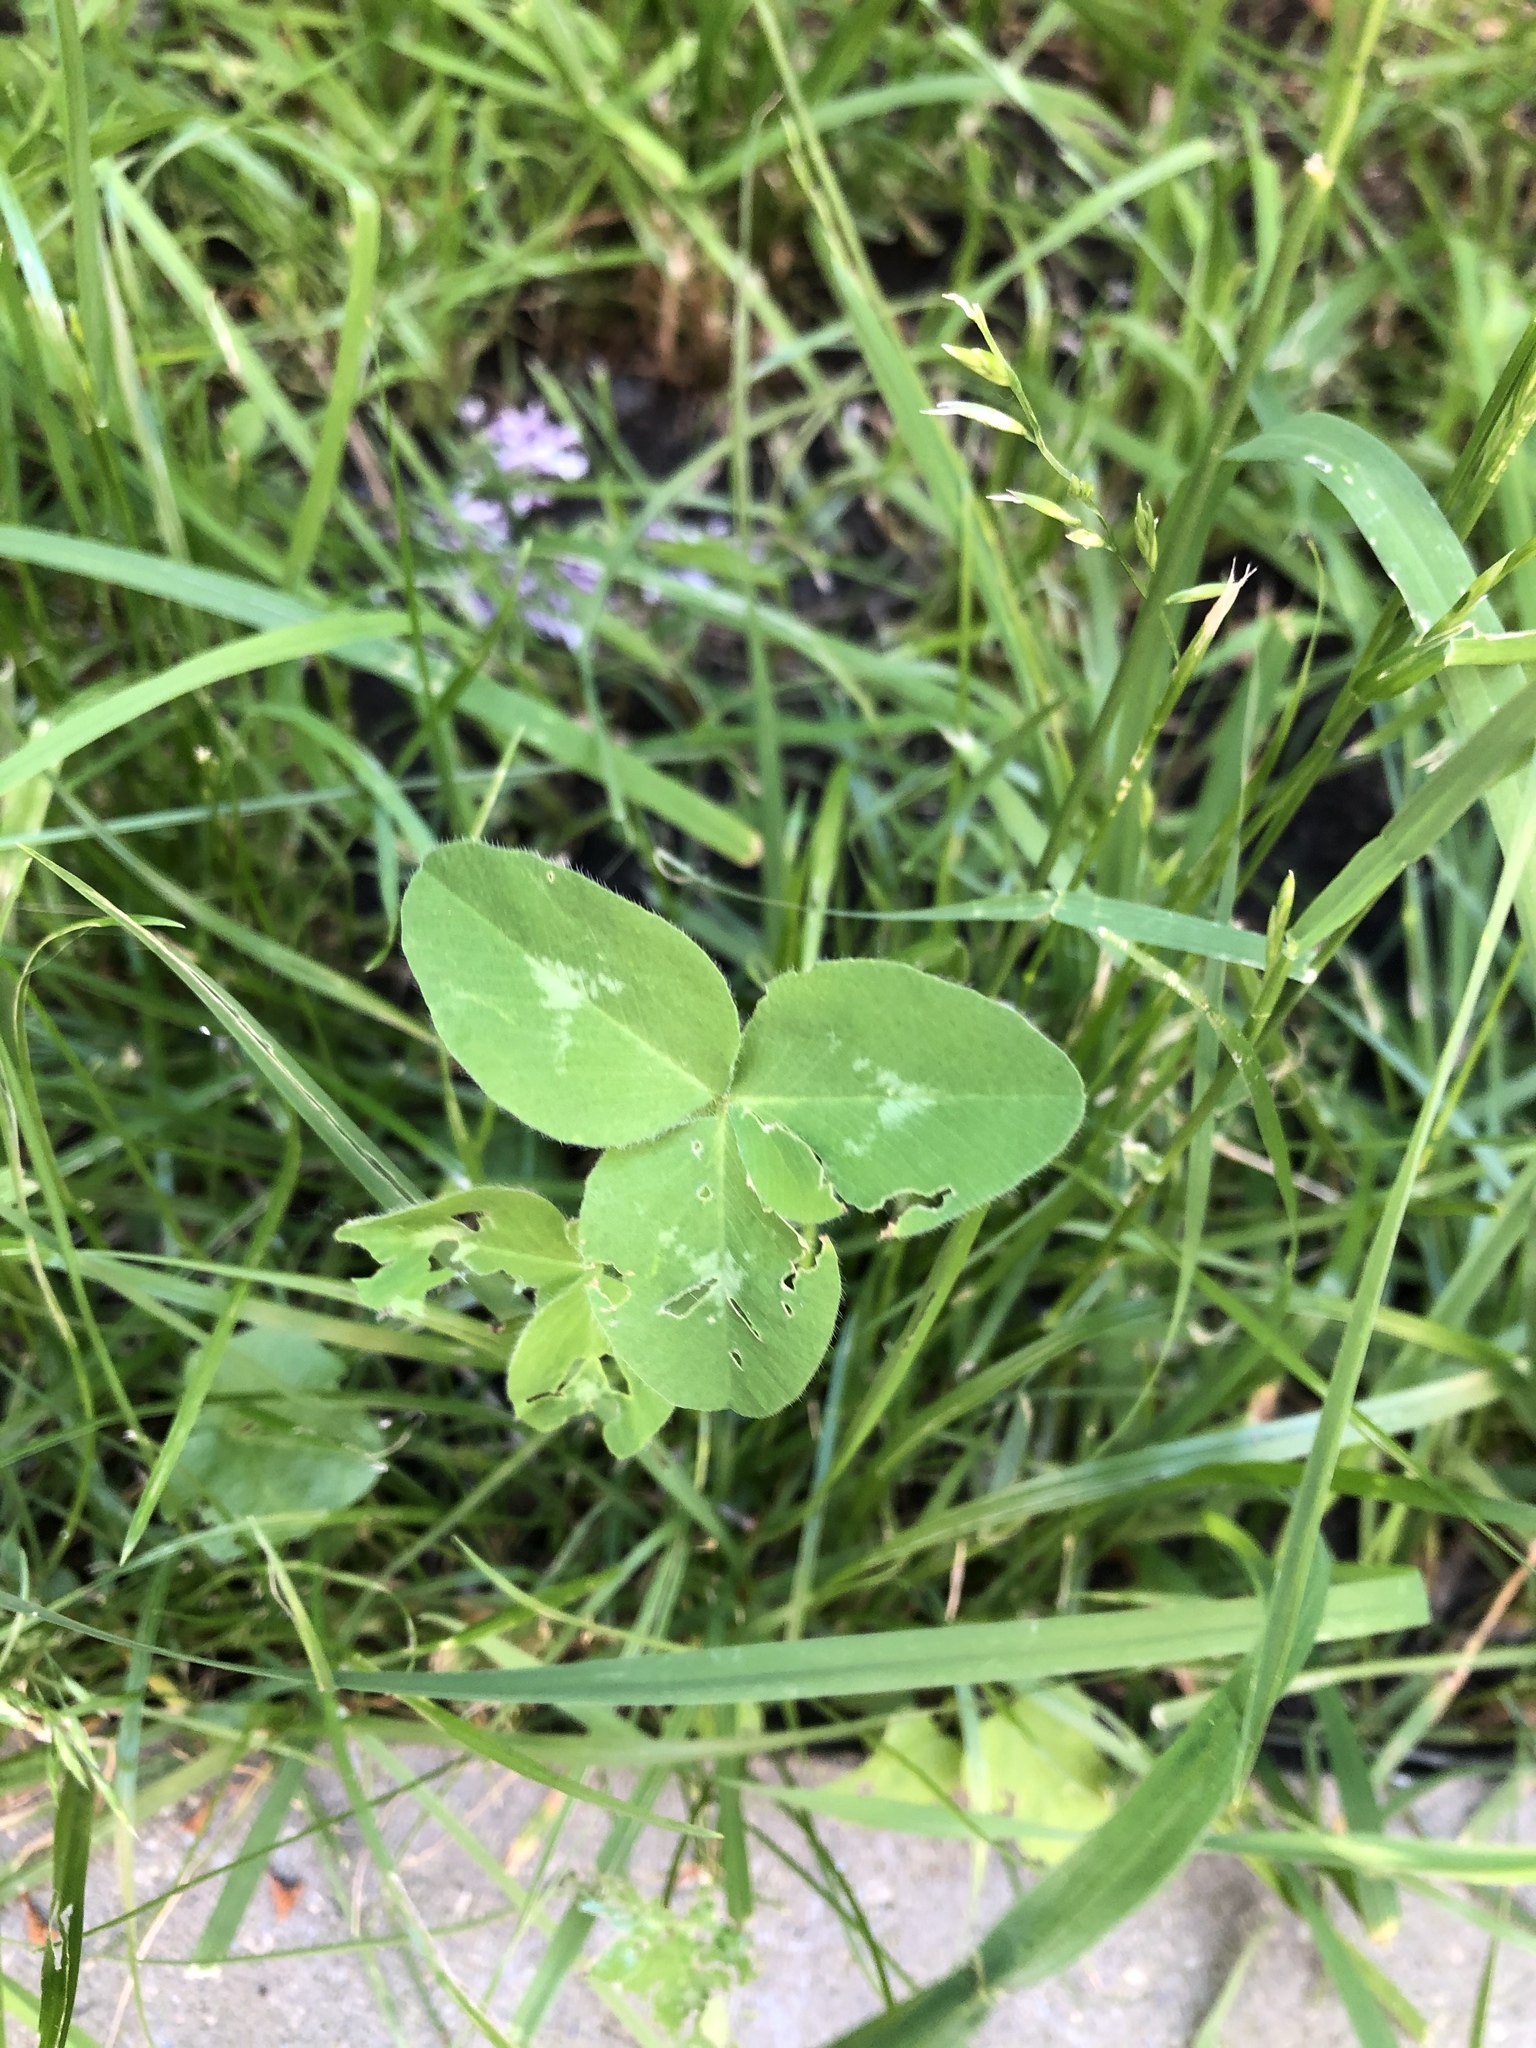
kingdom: Plantae
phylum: Tracheophyta
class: Magnoliopsida
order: Fabales
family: Fabaceae
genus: Trifolium
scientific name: Trifolium pratense
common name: Red clover
